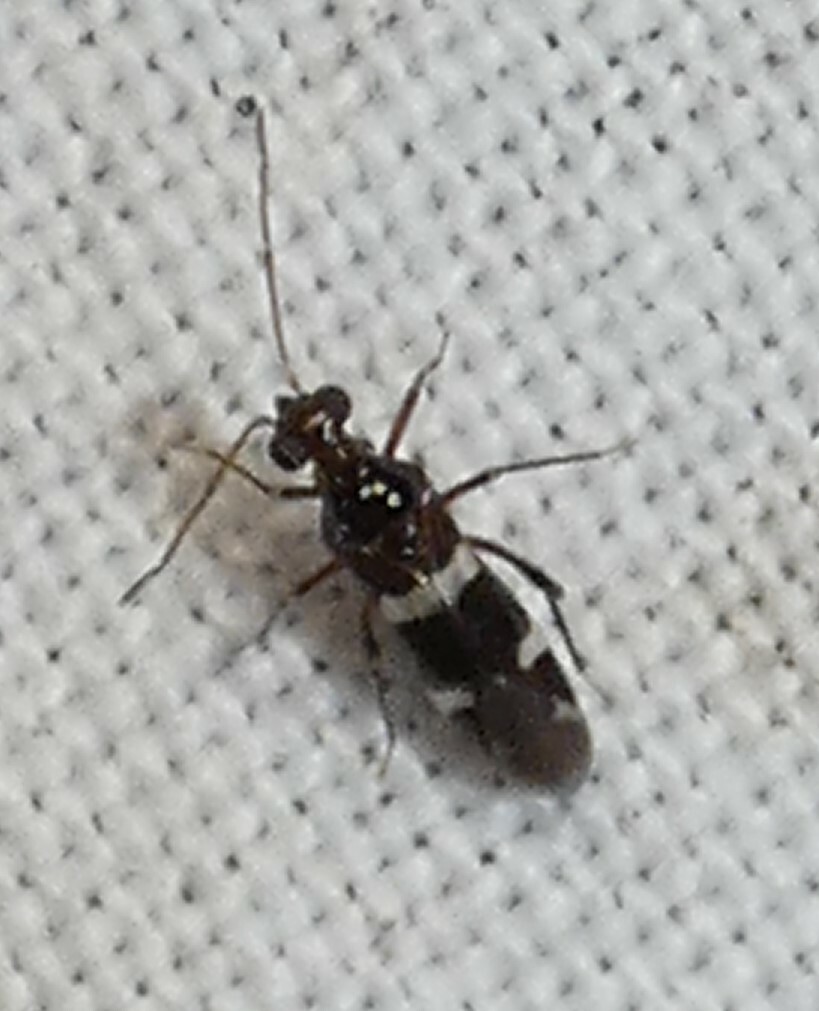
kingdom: Animalia
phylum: Arthropoda
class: Insecta
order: Hemiptera
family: Miridae
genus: Cyrtopeltocoris
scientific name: Cyrtopeltocoris gracilentis
